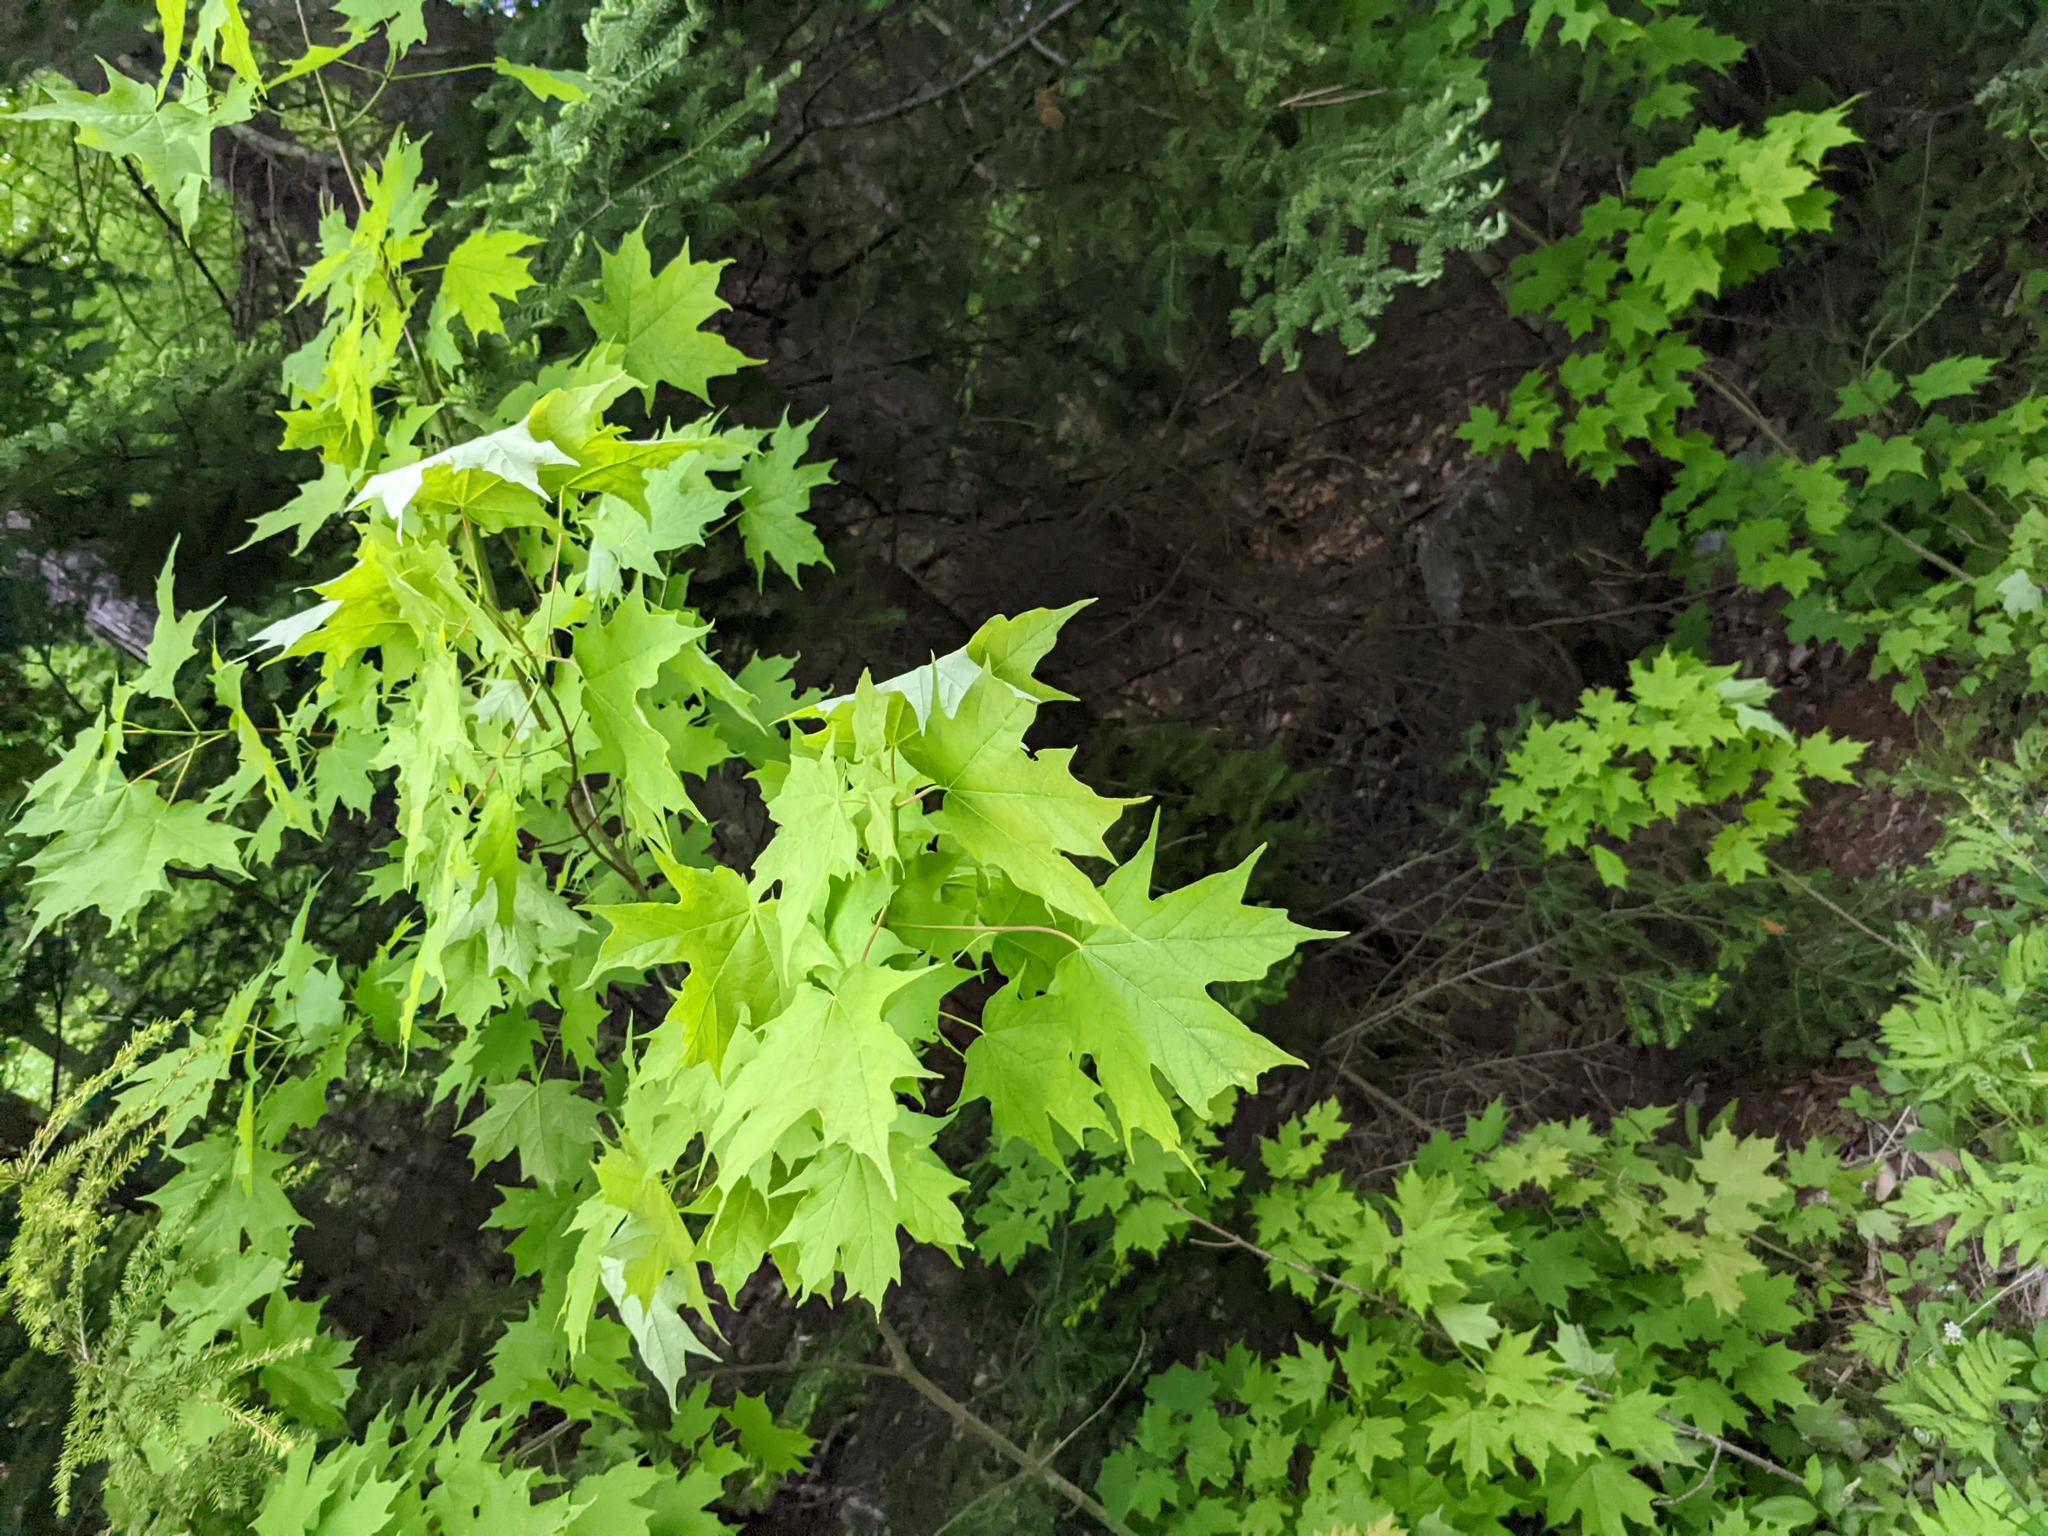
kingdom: Plantae
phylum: Tracheophyta
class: Magnoliopsida
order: Sapindales
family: Sapindaceae
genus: Acer
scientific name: Acer saccharum
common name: Sugar maple
